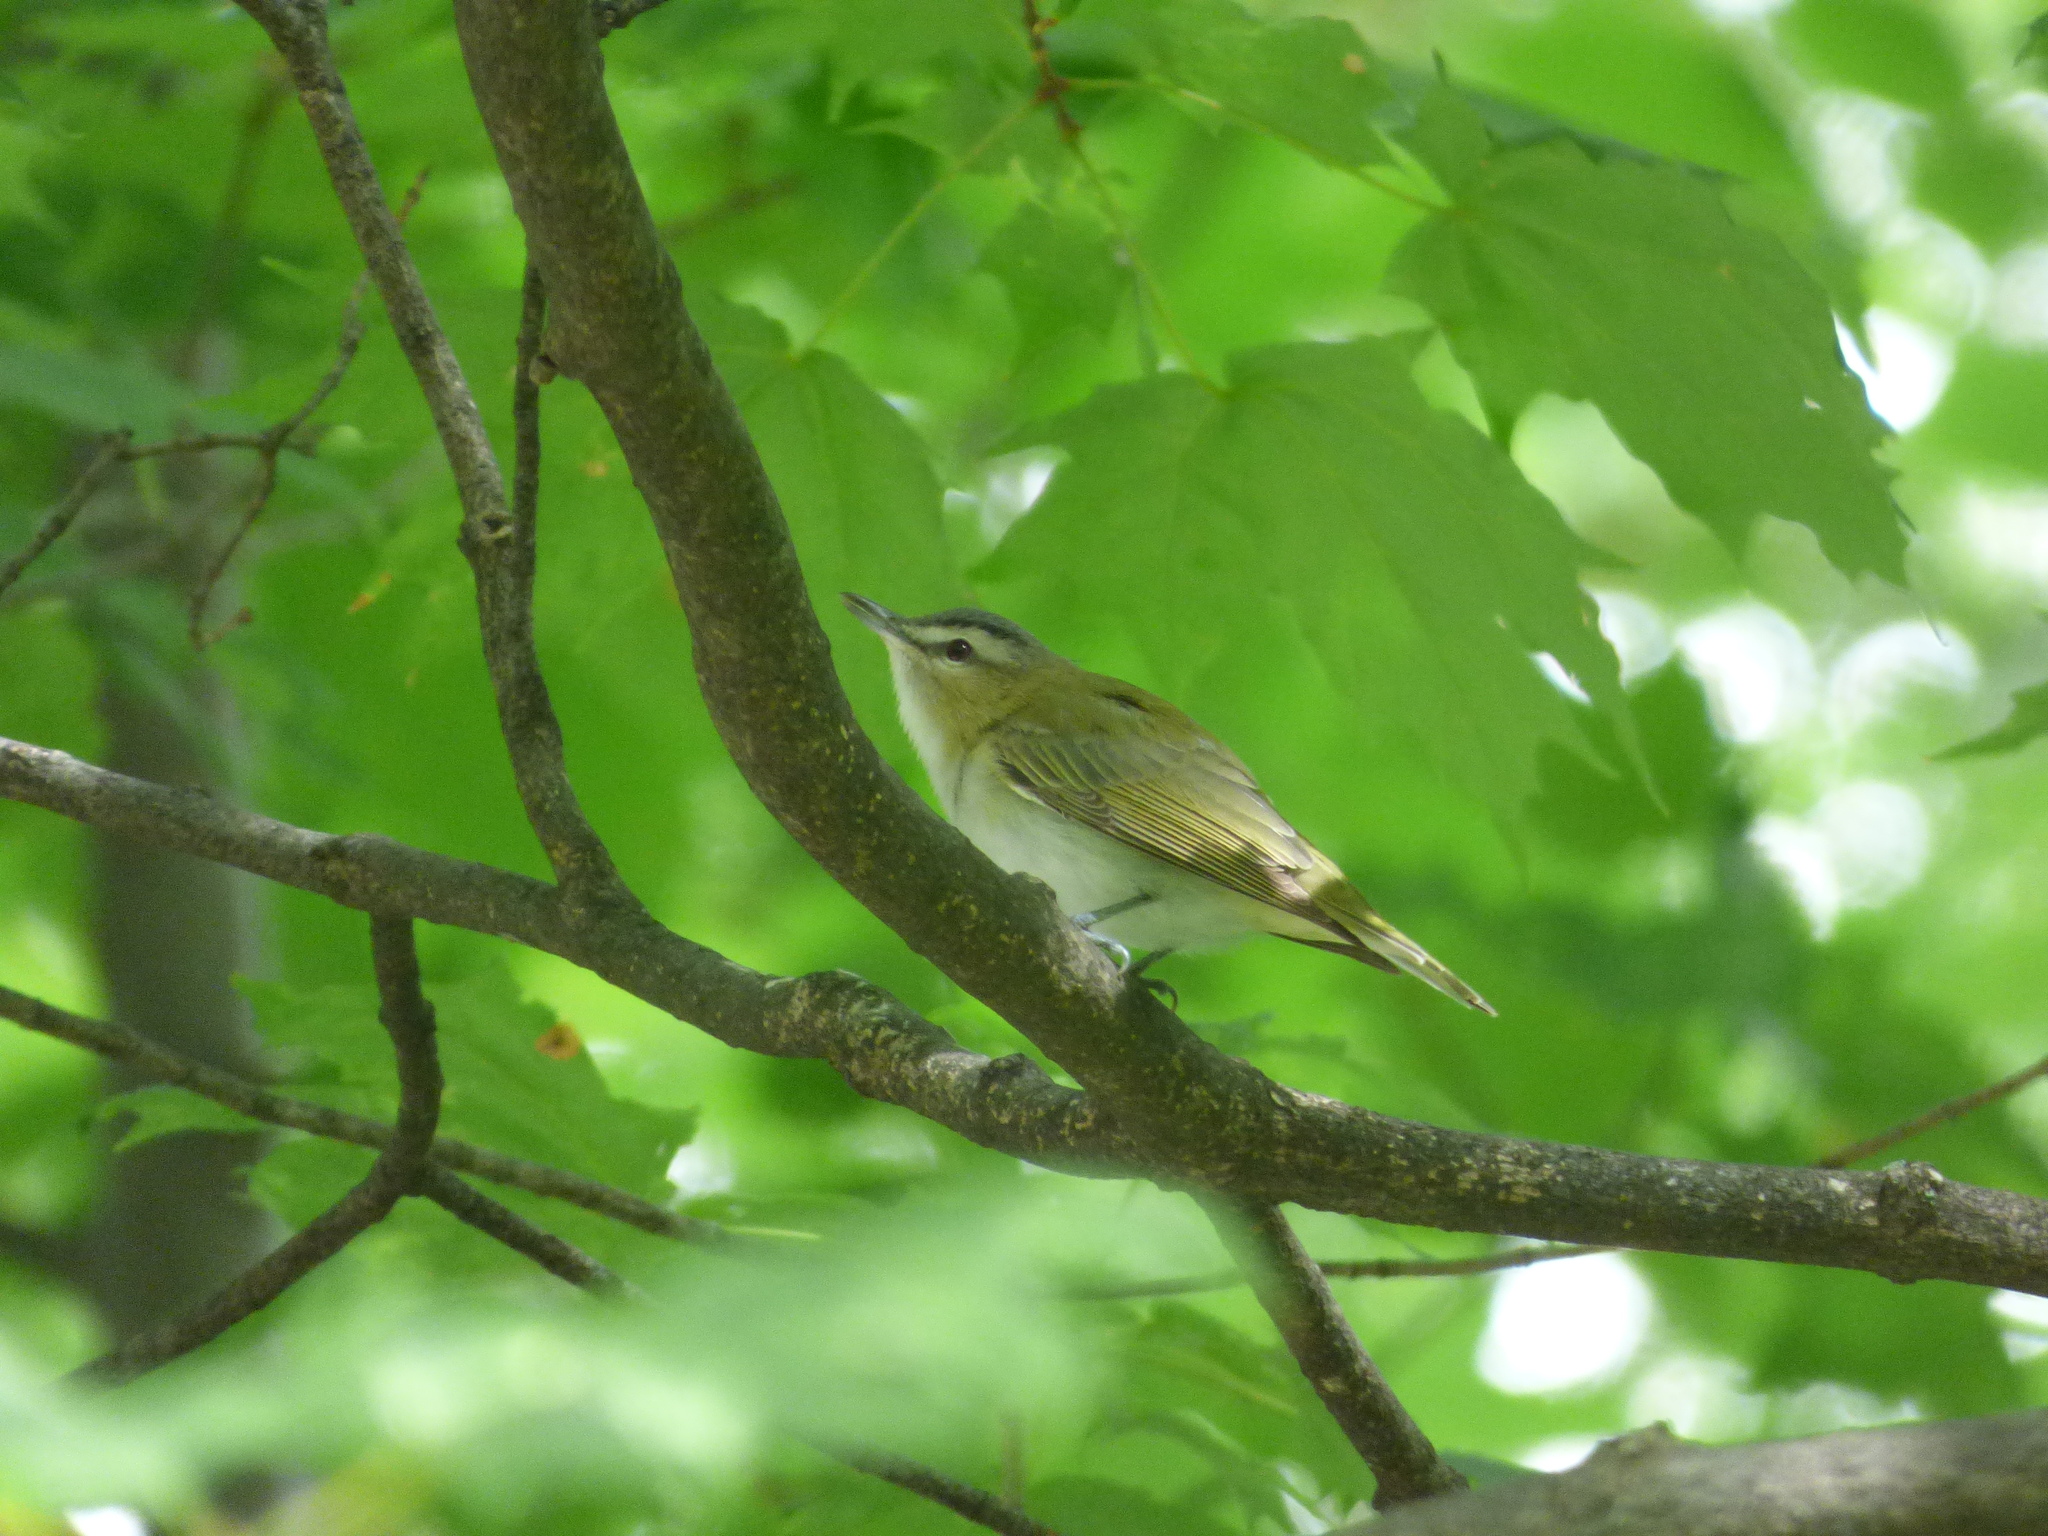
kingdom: Animalia
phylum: Chordata
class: Aves
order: Passeriformes
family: Vireonidae
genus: Vireo
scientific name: Vireo olivaceus
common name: Red-eyed vireo
